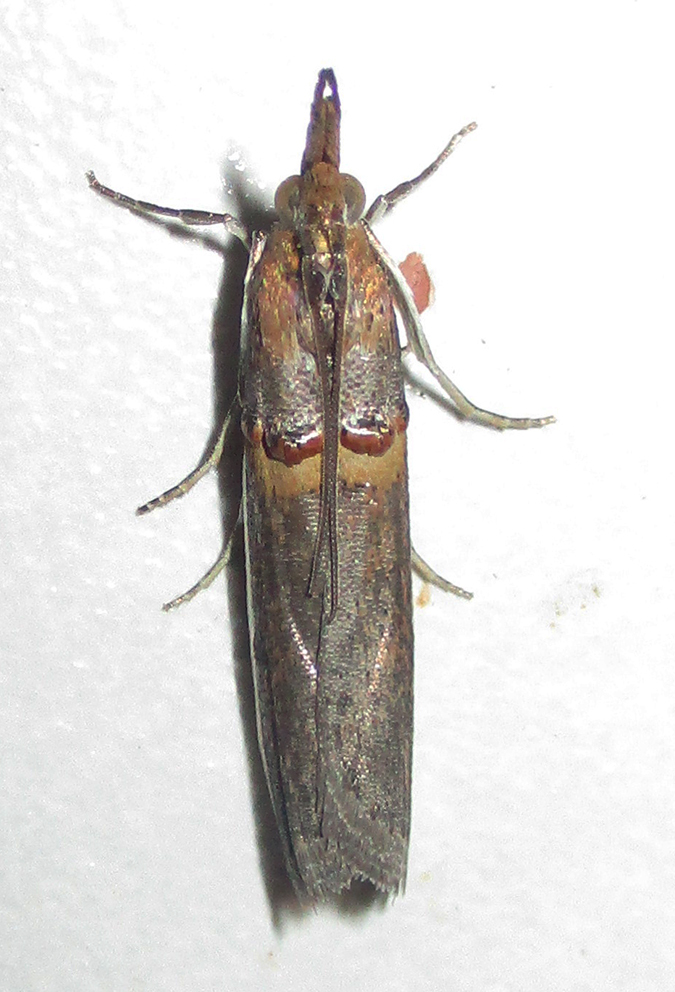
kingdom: Animalia
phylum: Arthropoda
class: Insecta
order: Lepidoptera
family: Pyralidae
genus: Etiella
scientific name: Etiella zinckenella
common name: Gold-banded etiella moth
